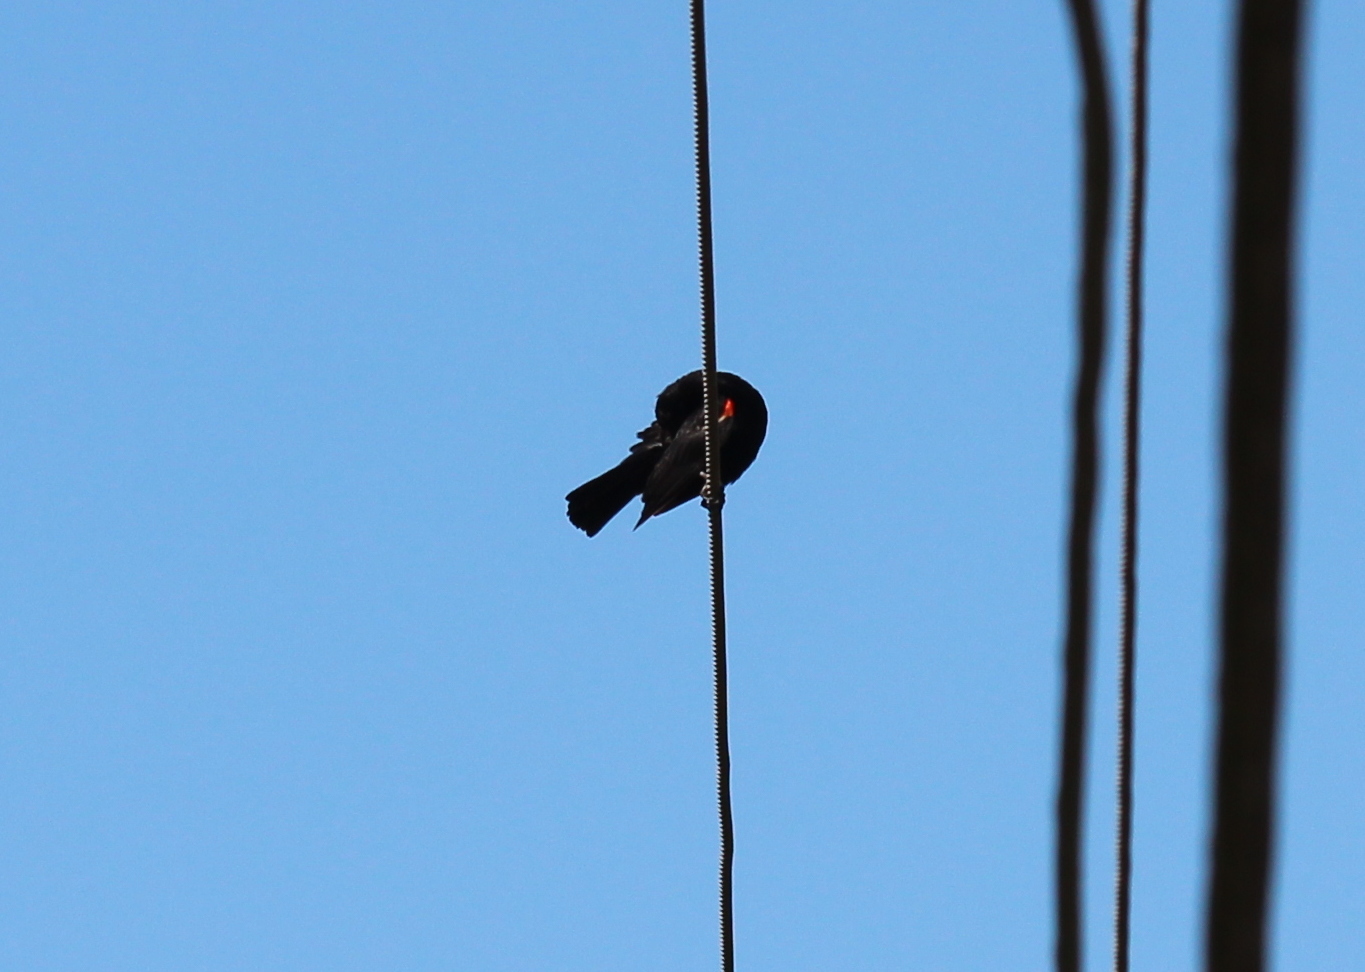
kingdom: Animalia
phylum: Chordata
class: Aves
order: Passeriformes
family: Icteridae
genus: Agelaius
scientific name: Agelaius phoeniceus
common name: Red-winged blackbird
